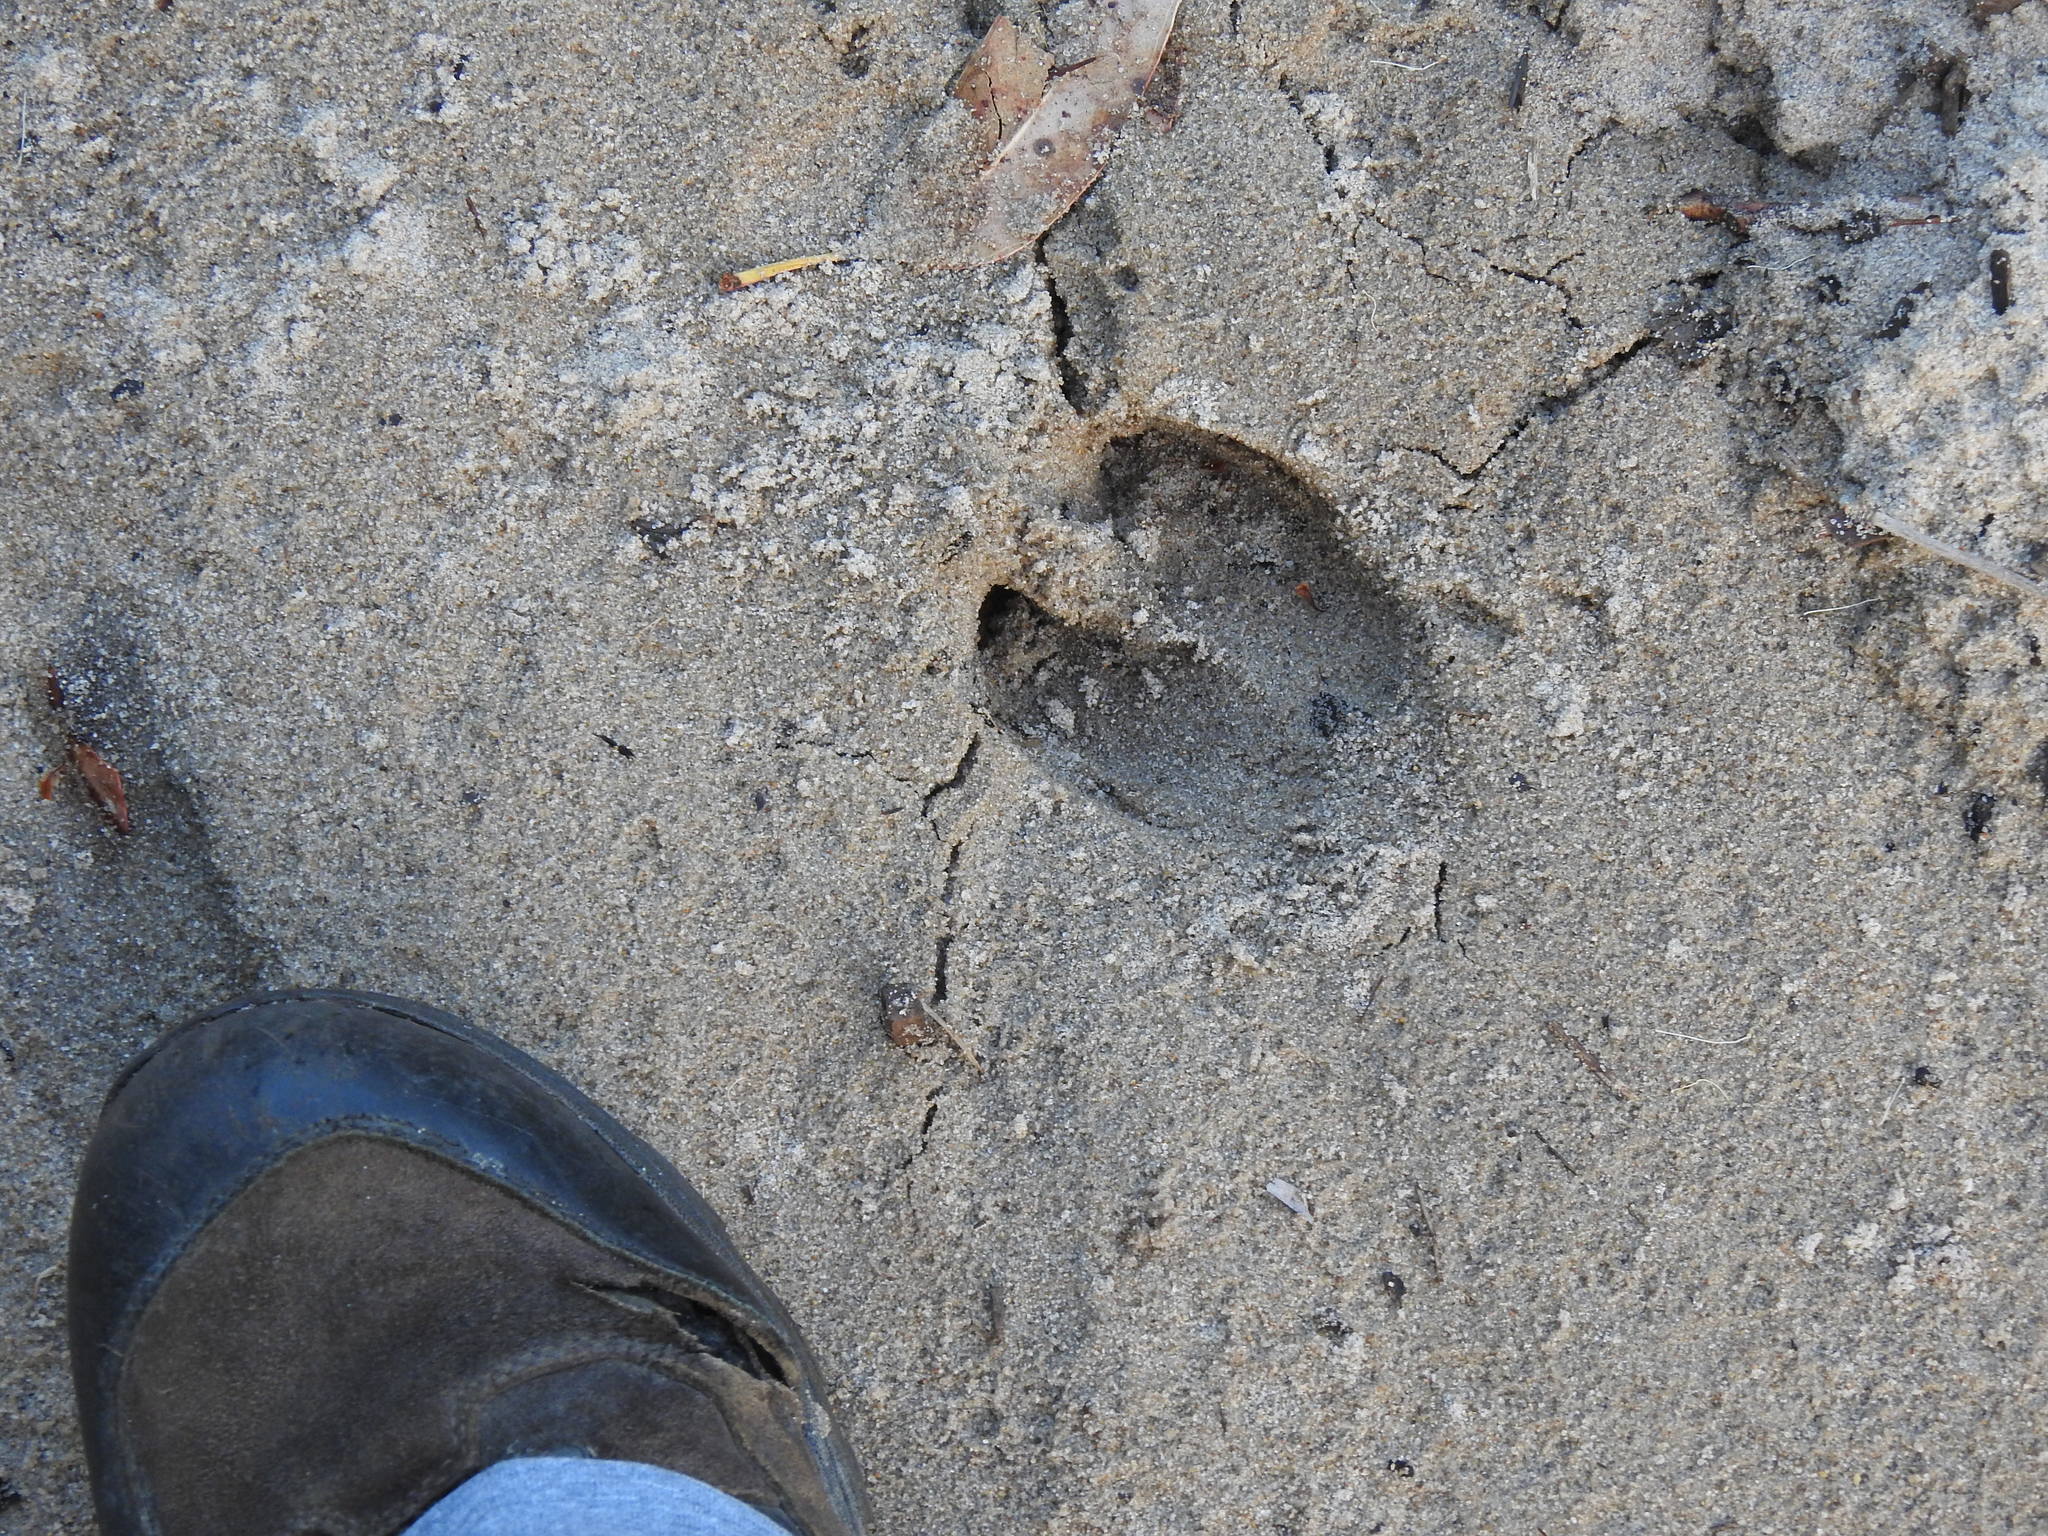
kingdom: Animalia
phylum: Chordata
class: Mammalia
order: Artiodactyla
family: Suidae
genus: Sus
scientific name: Sus scrofa
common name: Wild boar
